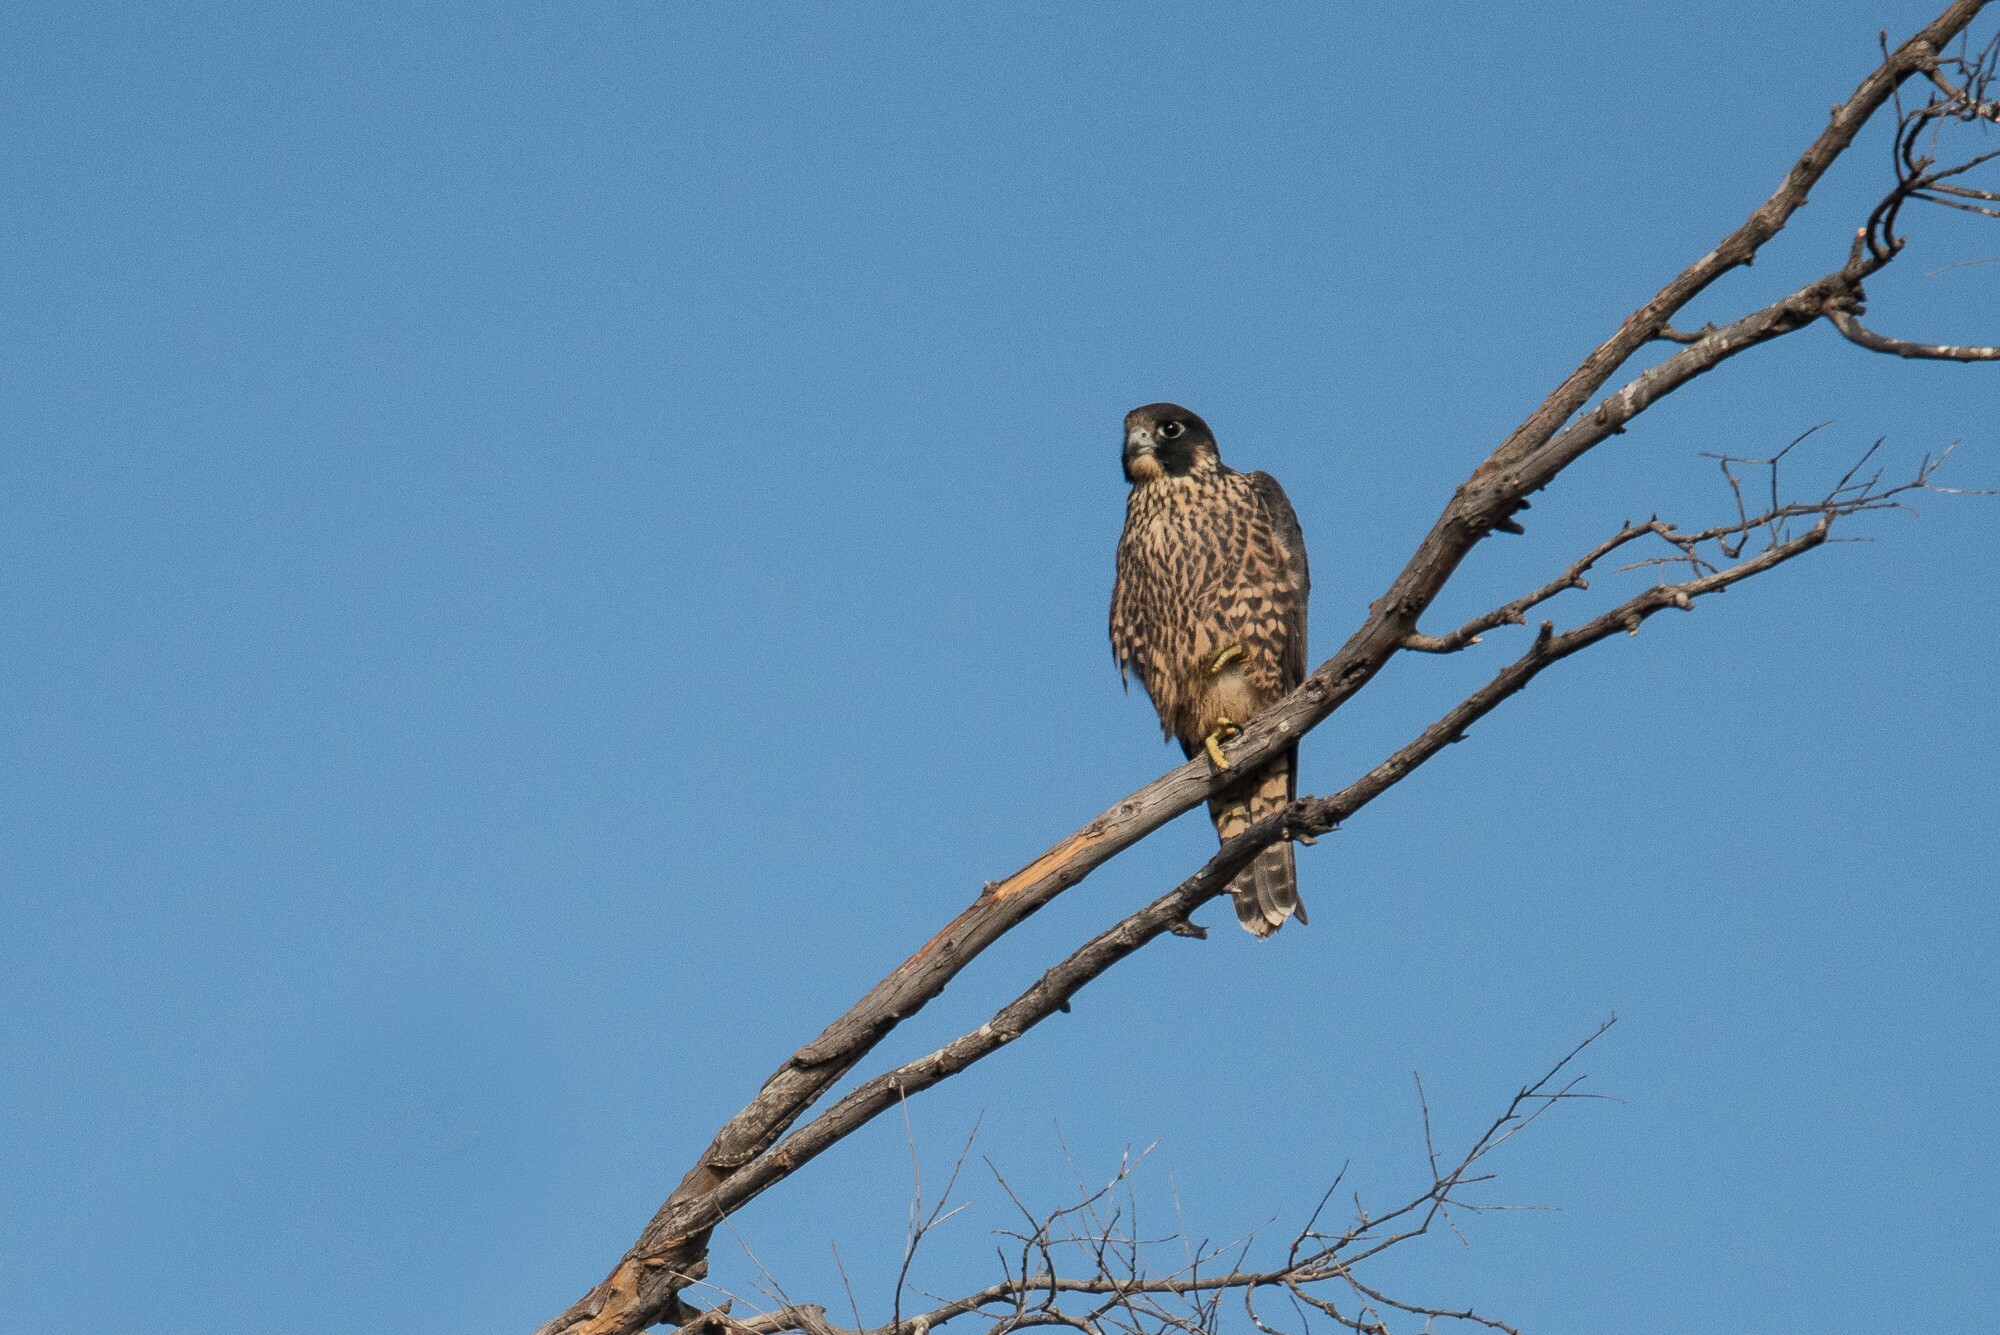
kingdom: Animalia
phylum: Chordata
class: Aves
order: Falconiformes
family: Falconidae
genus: Falco
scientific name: Falco peregrinus
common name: Peregrine falcon
